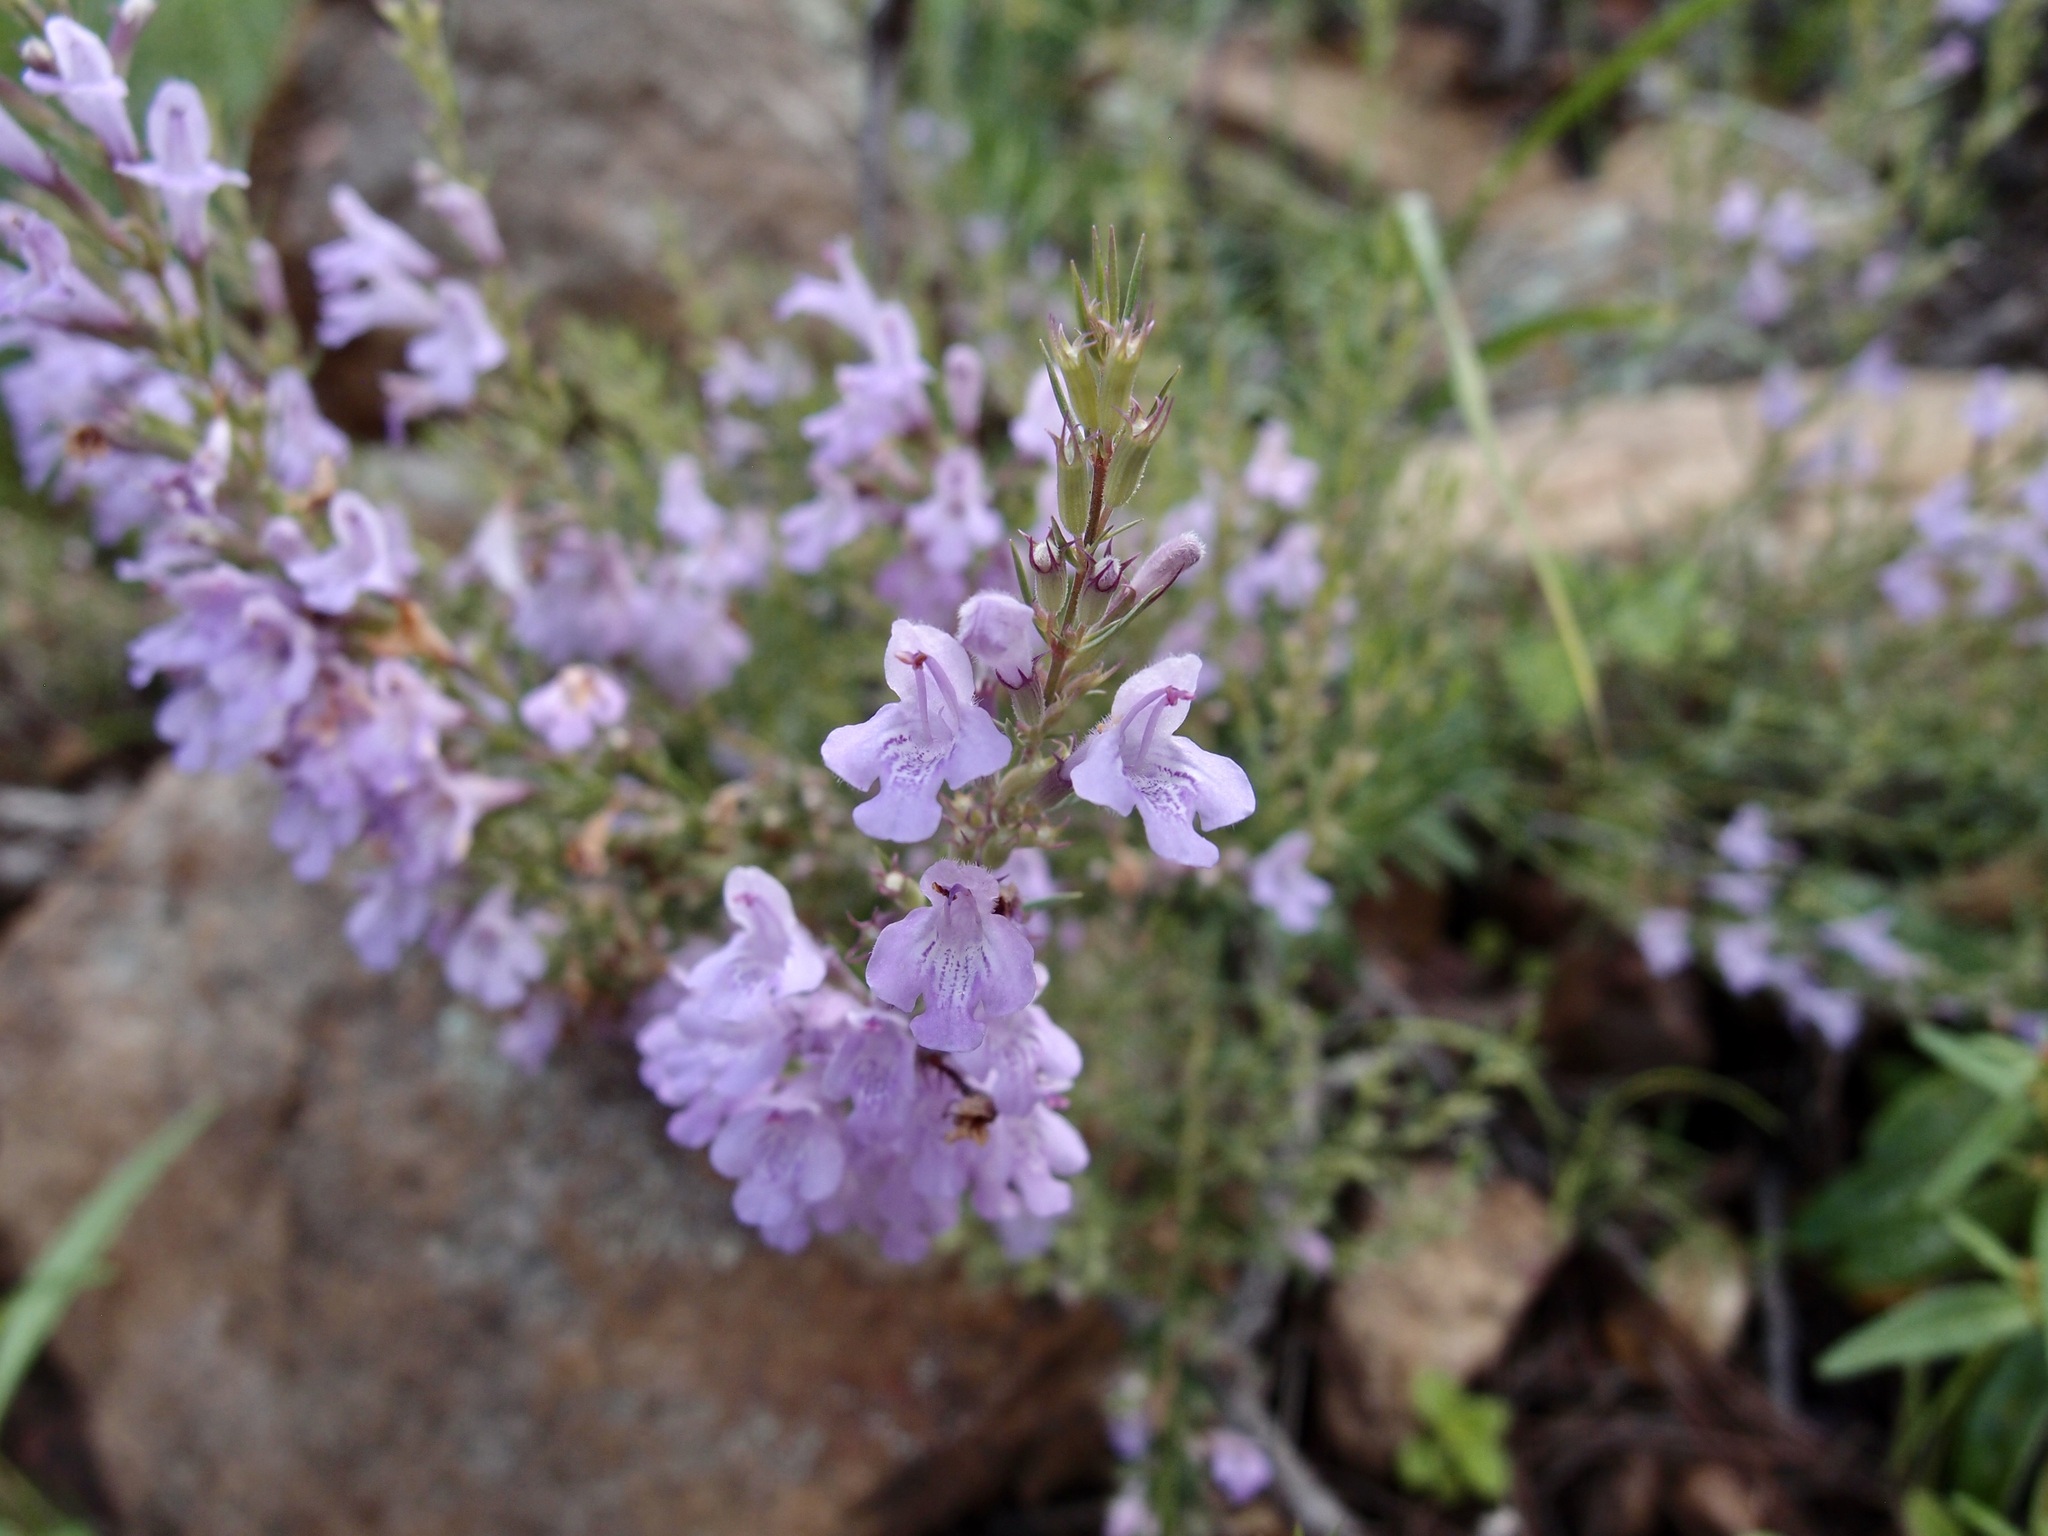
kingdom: Plantae
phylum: Tracheophyta
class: Magnoliopsida
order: Lamiales
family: Lamiaceae
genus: Hedeoma
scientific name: Hedeoma hyssopifolia
